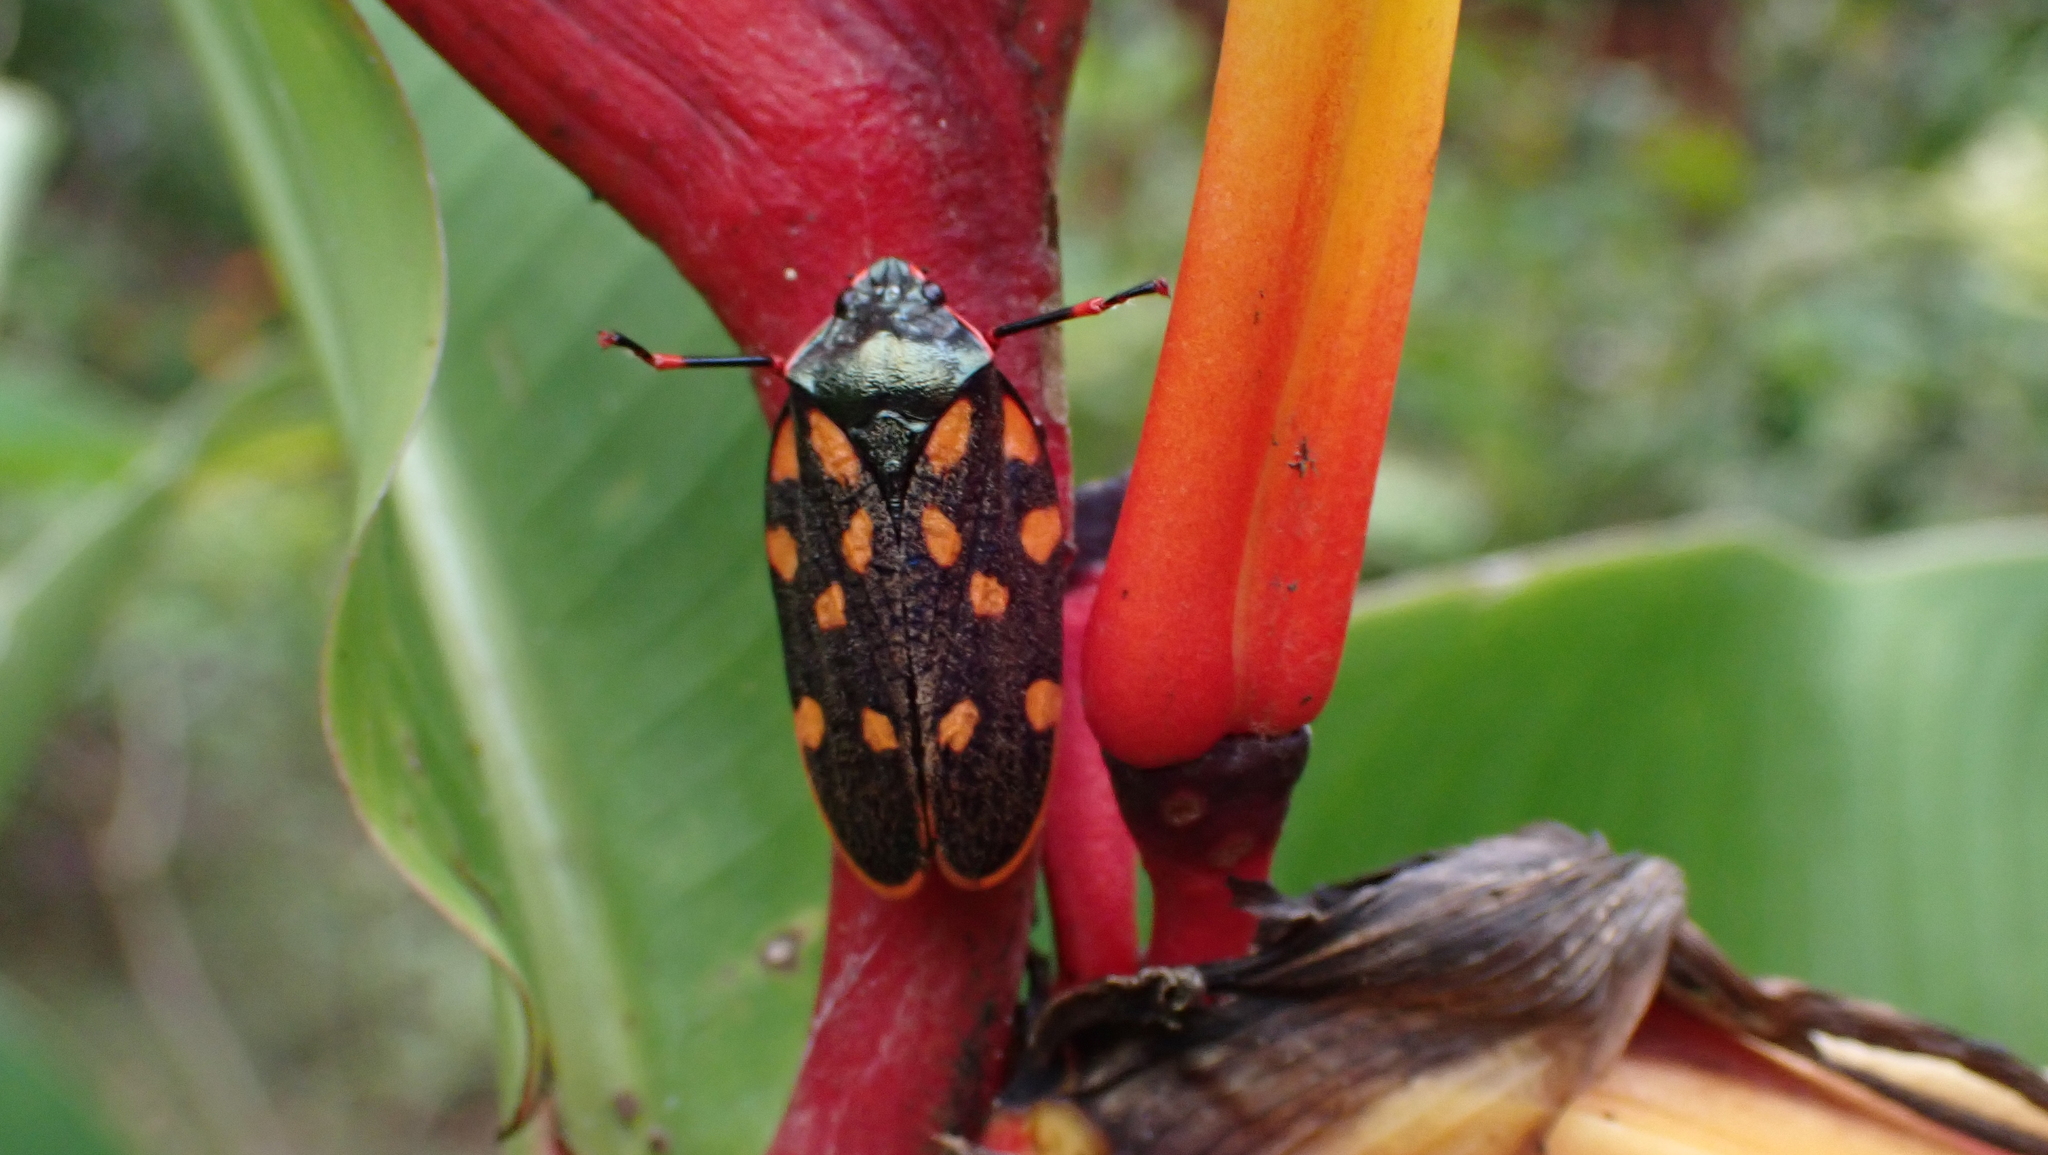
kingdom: Animalia
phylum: Arthropoda
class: Insecta
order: Hemiptera
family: Cercopidae
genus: Mahanarva
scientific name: Mahanarva costaricensis
